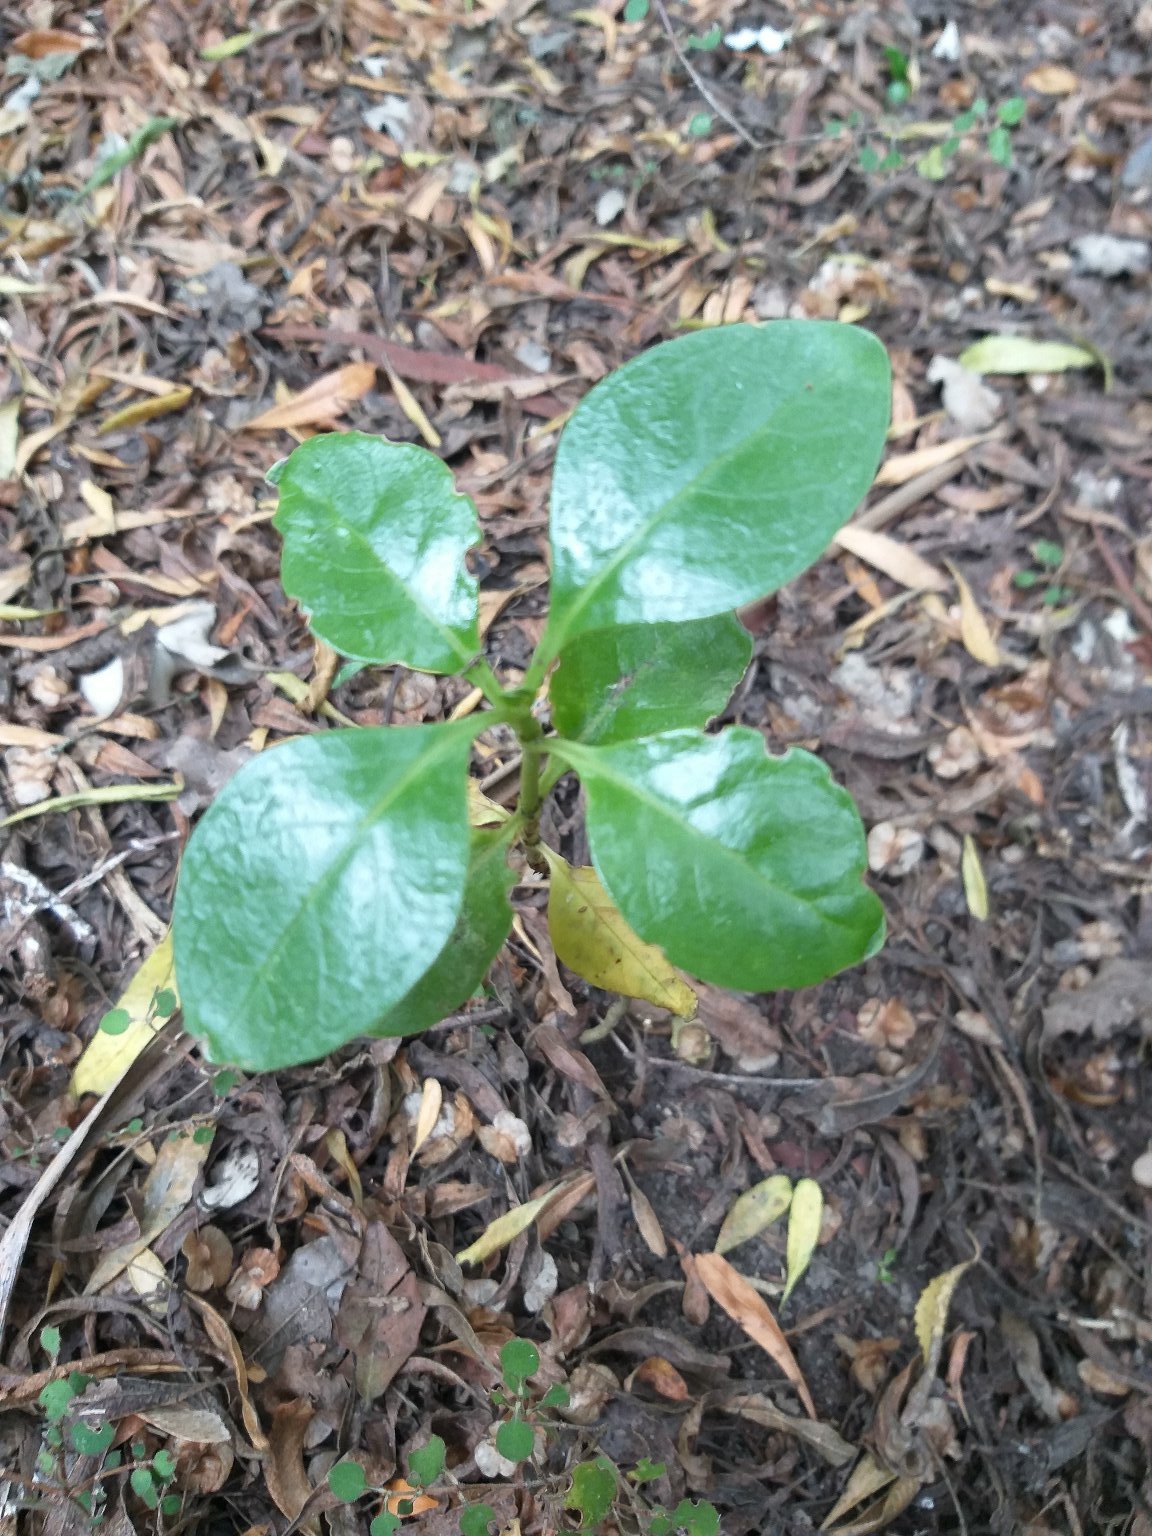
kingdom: Plantae
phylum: Tracheophyta
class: Magnoliopsida
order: Gentianales
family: Rubiaceae
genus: Coprosma
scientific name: Coprosma lucida
